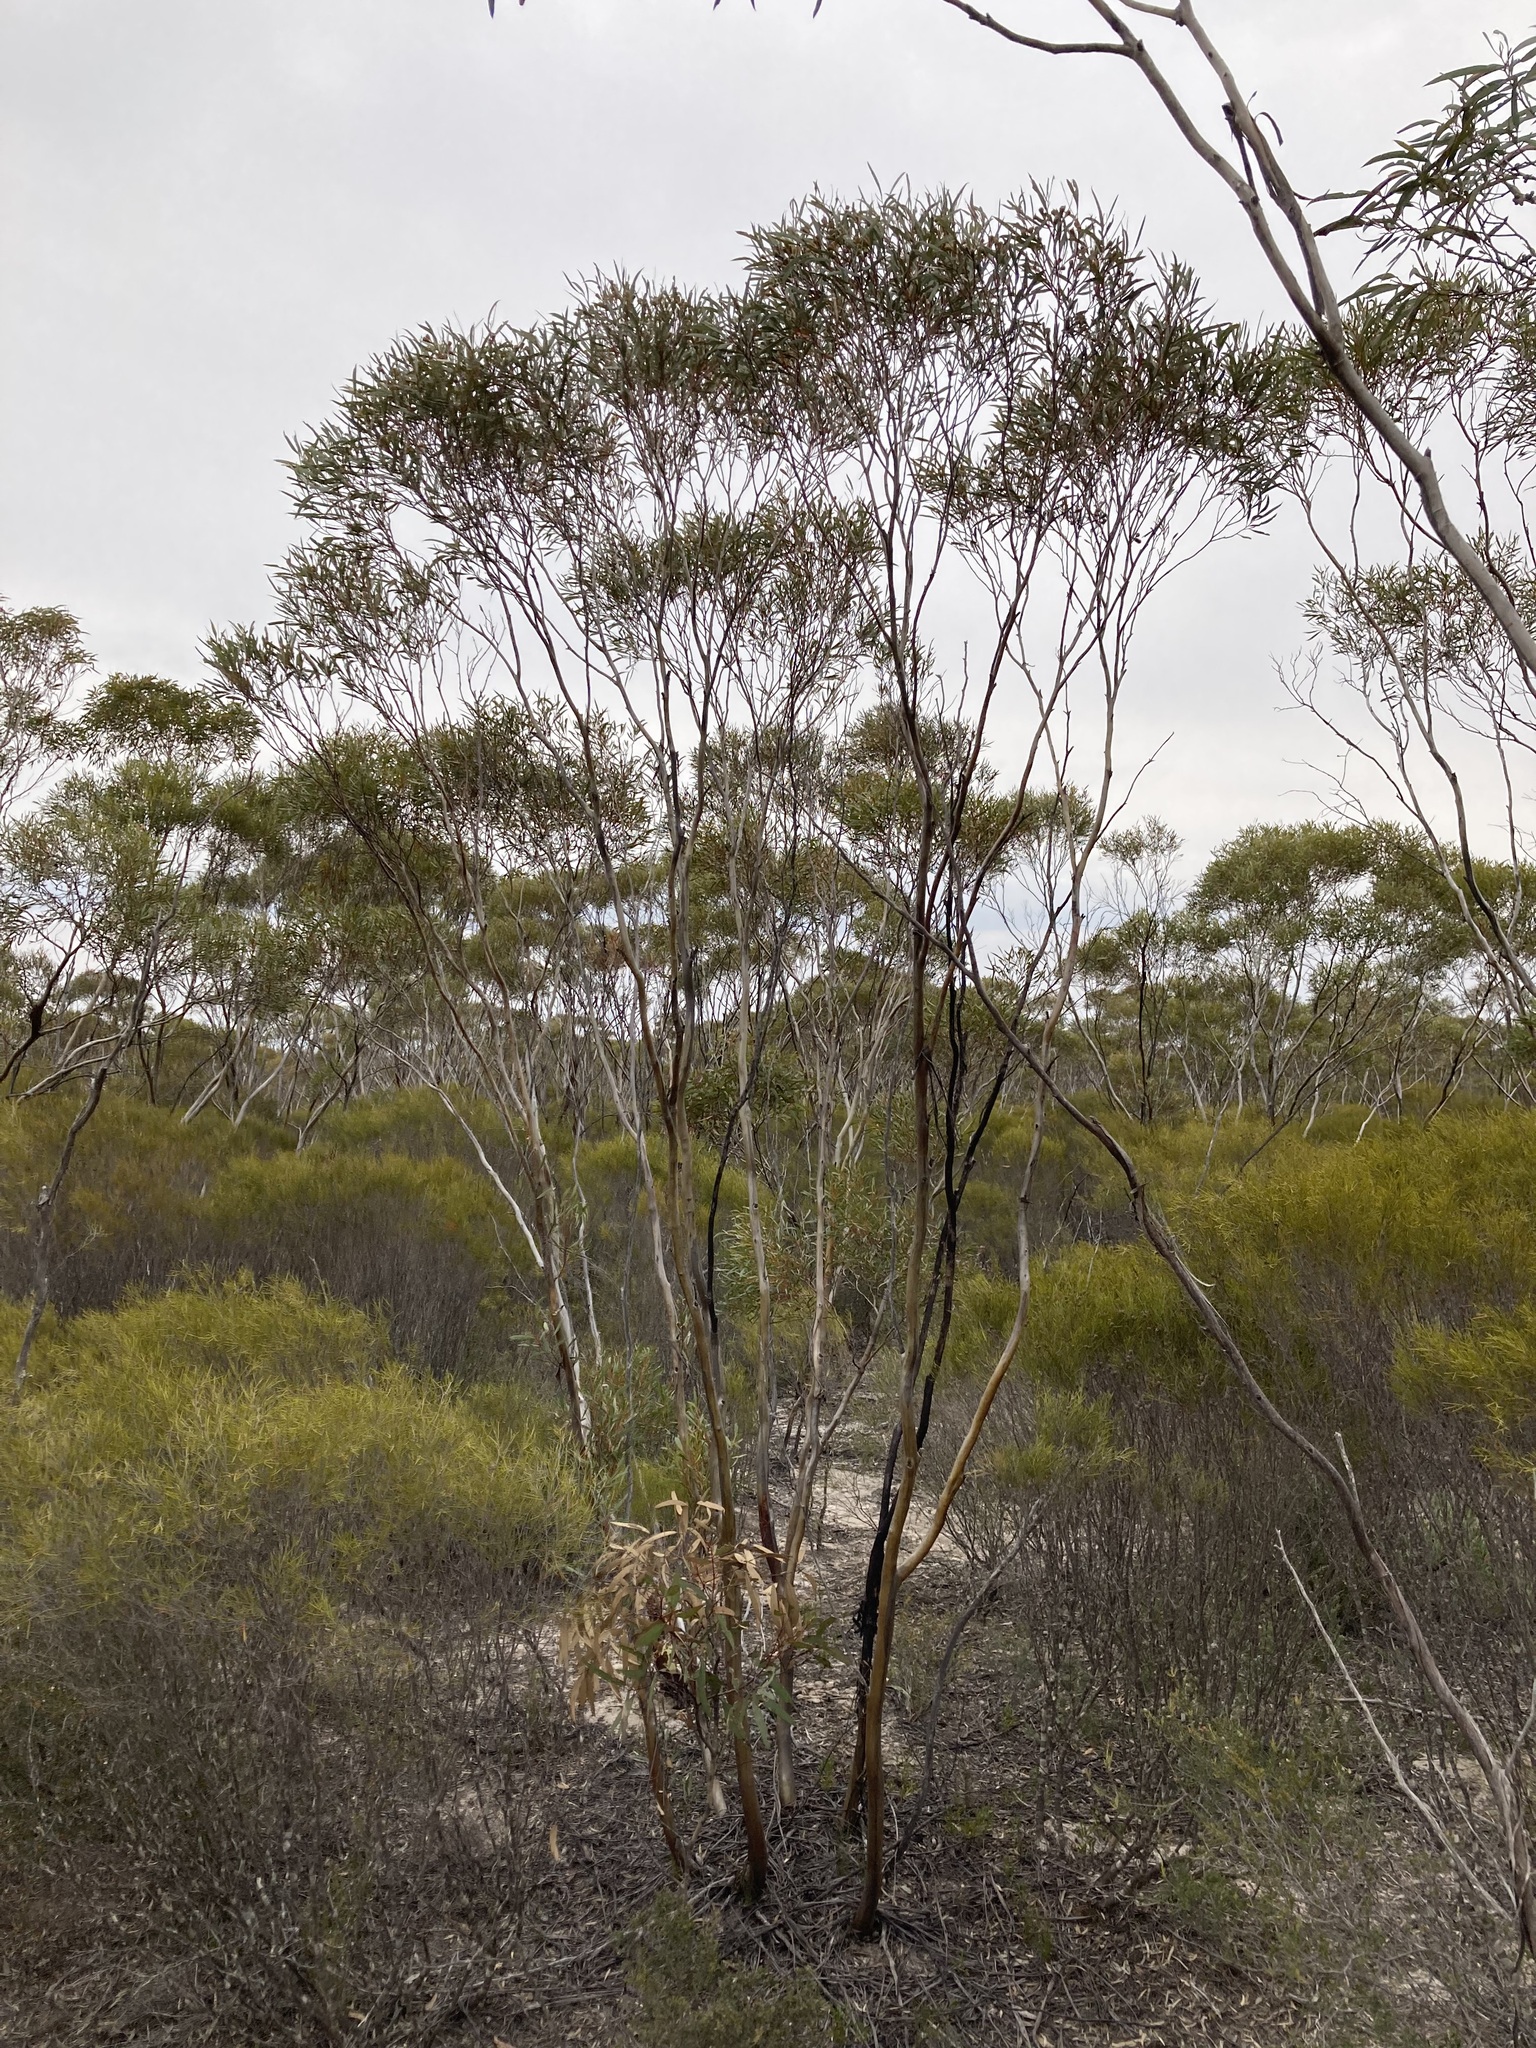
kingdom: Plantae
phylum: Tracheophyta
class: Magnoliopsida
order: Myrtales
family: Myrtaceae
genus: Eucalyptus
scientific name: Eucalyptus orthostemon
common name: Diverse mallee
